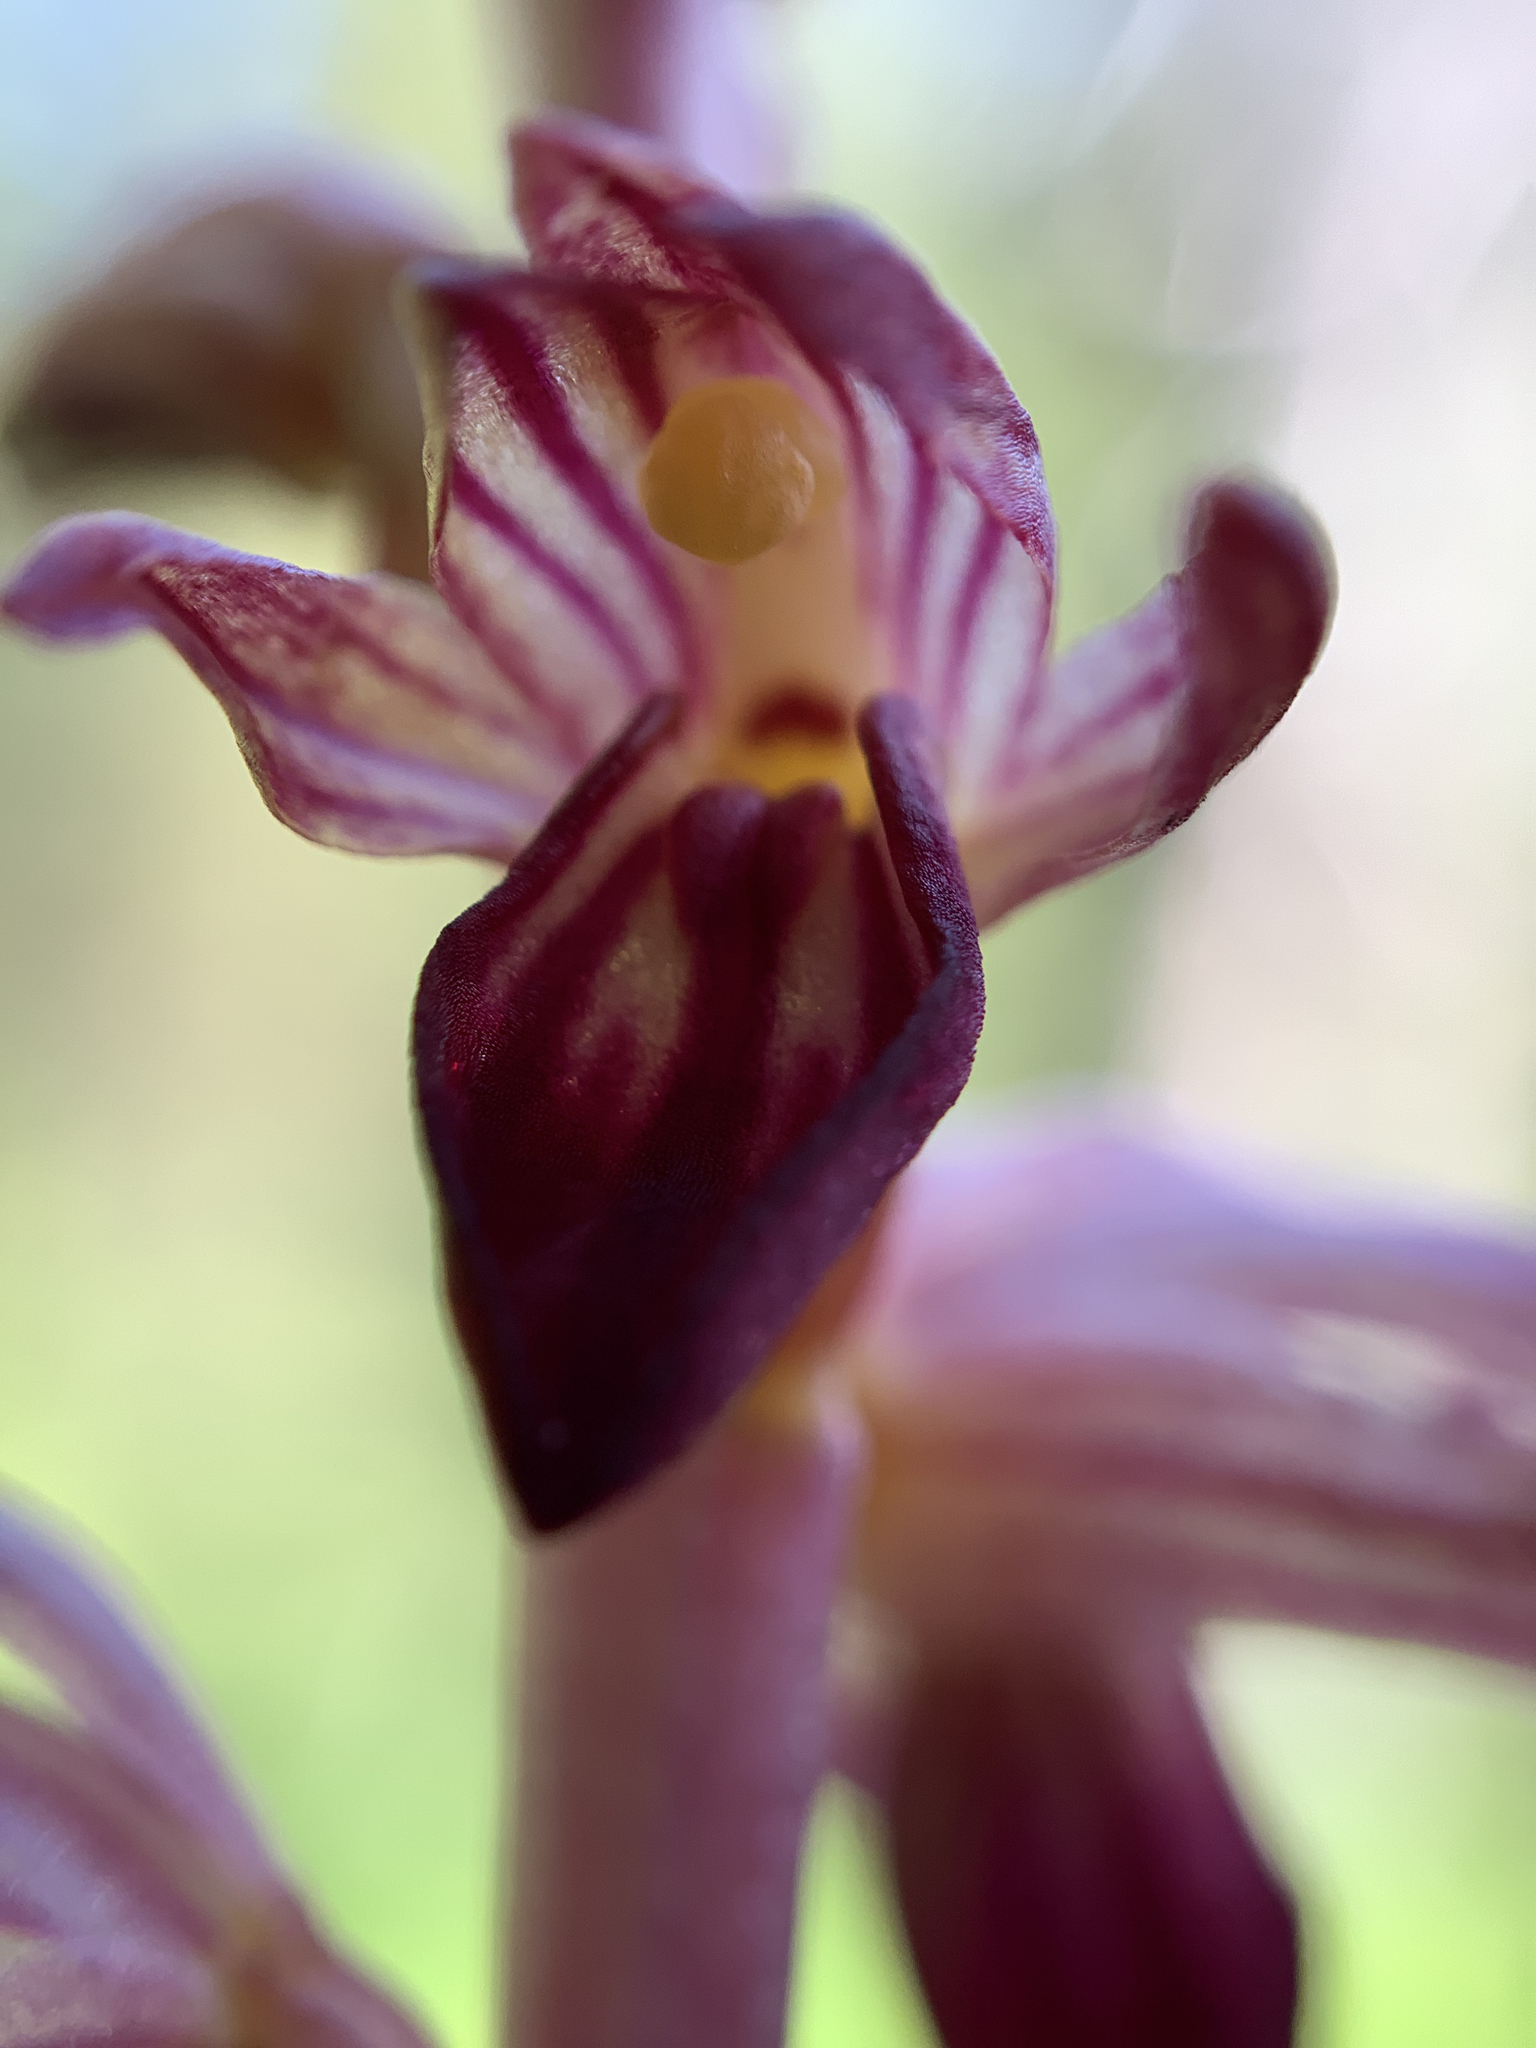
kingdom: Plantae
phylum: Tracheophyta
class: Liliopsida
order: Asparagales
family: Orchidaceae
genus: Corallorhiza
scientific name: Corallorhiza striata
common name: Hooded coralroot
